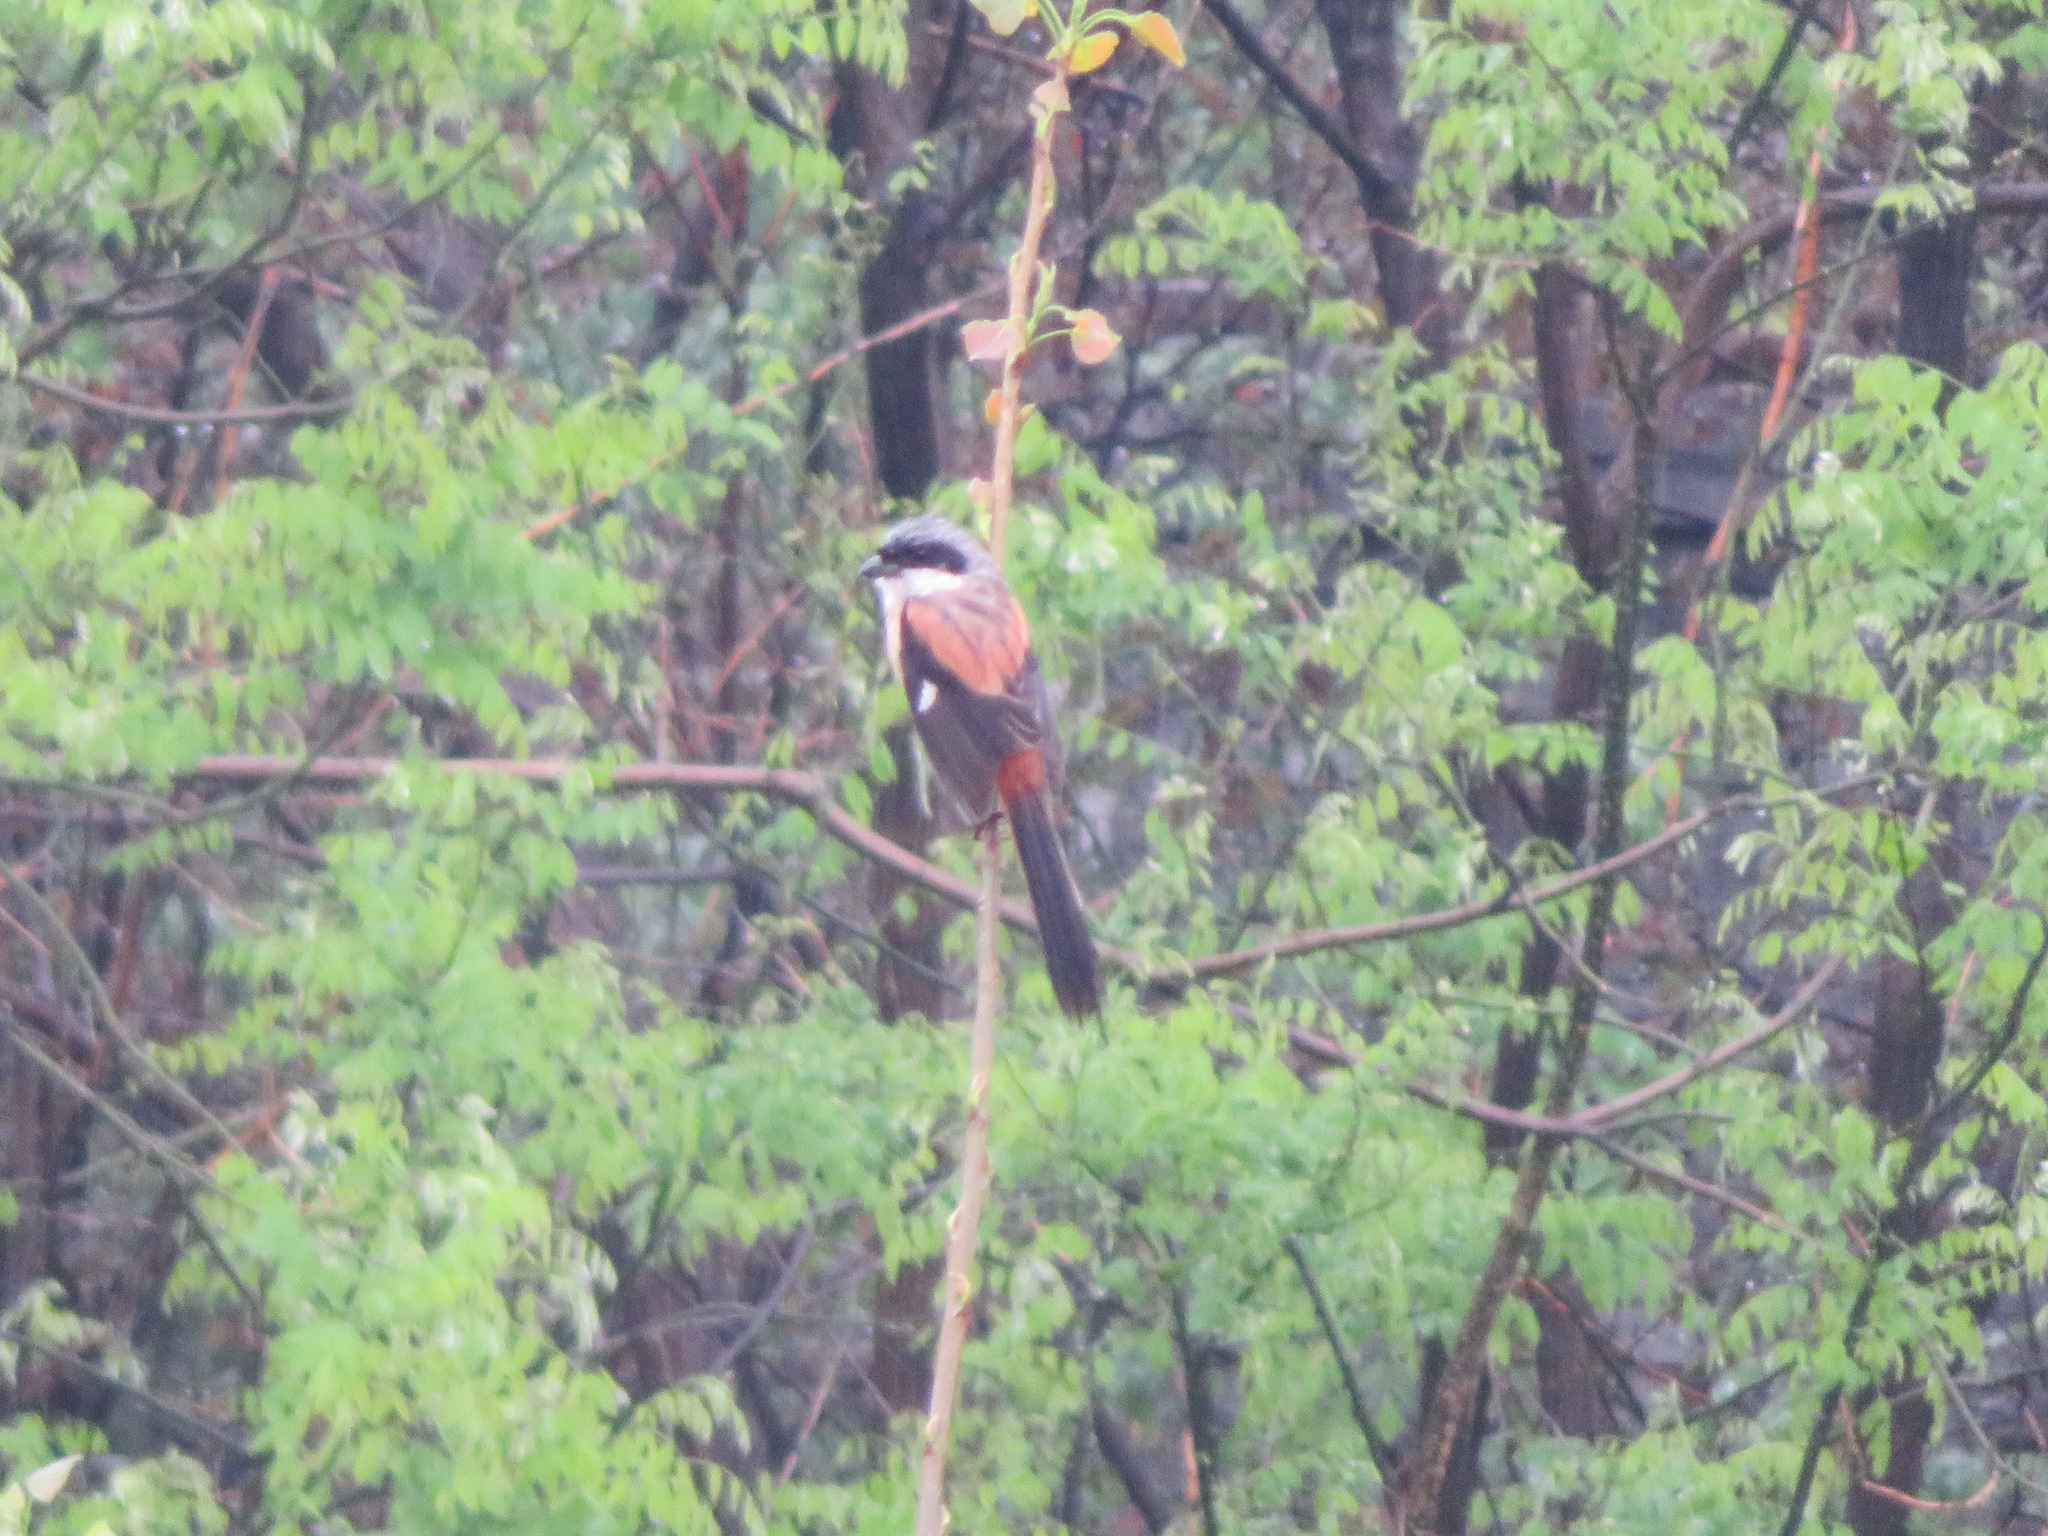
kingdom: Animalia
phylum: Chordata
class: Aves
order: Passeriformes
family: Laniidae
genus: Lanius
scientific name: Lanius schach
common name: Long-tailed shrike
